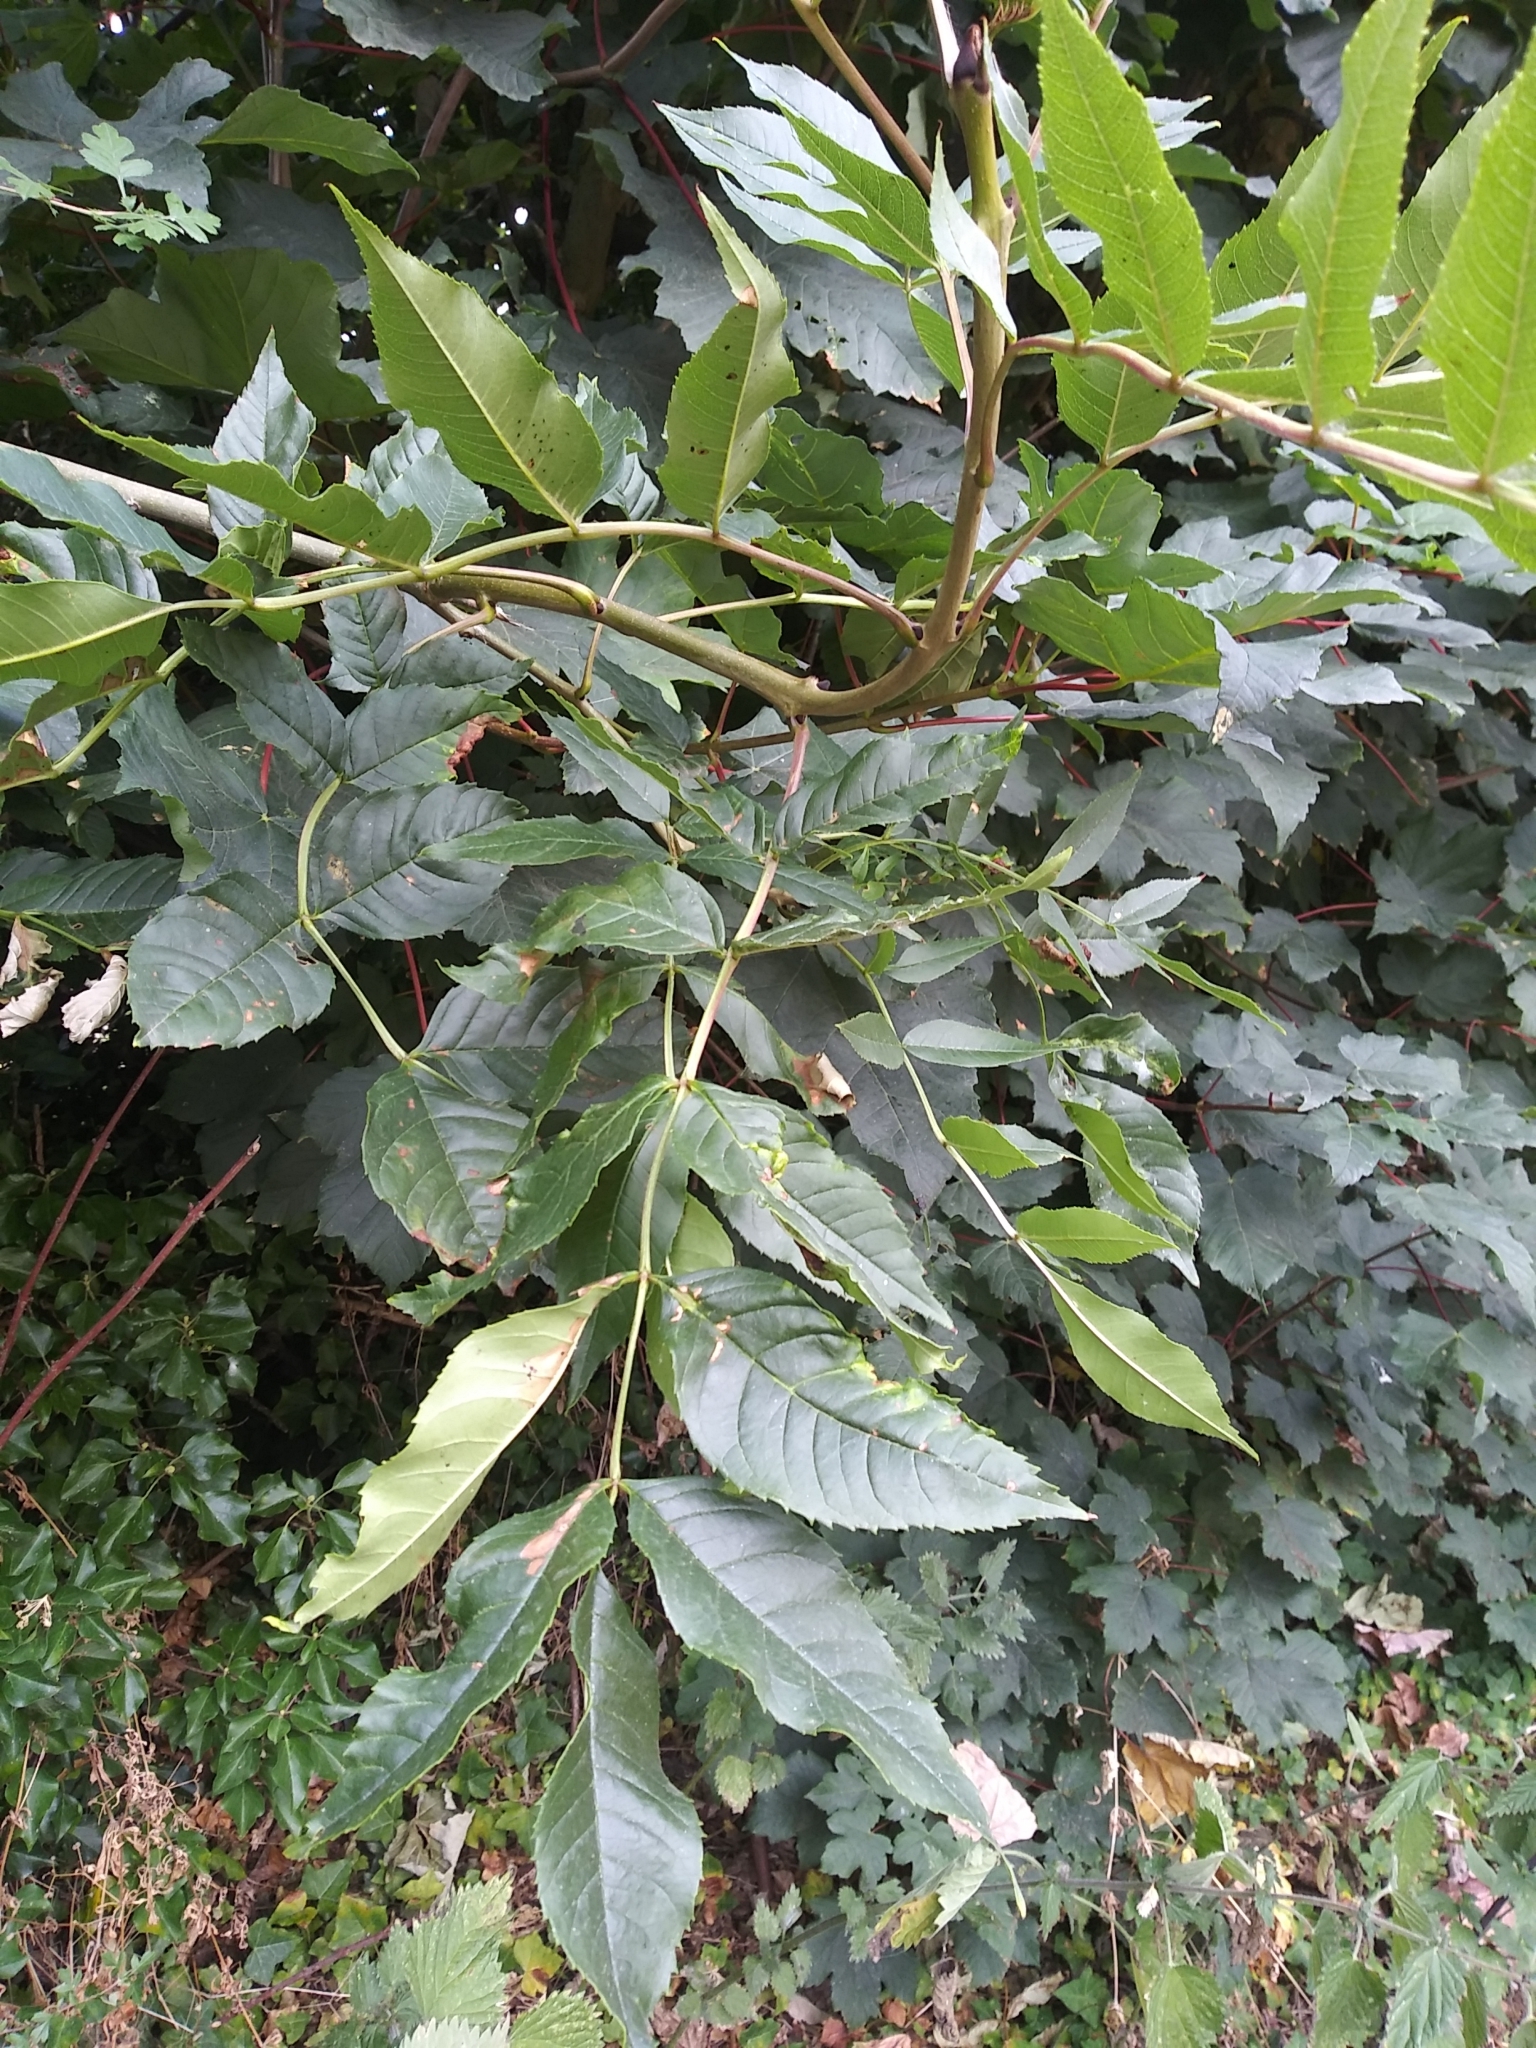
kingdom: Plantae
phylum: Tracheophyta
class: Magnoliopsida
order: Lamiales
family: Oleaceae
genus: Fraxinus
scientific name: Fraxinus excelsior
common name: European ash
